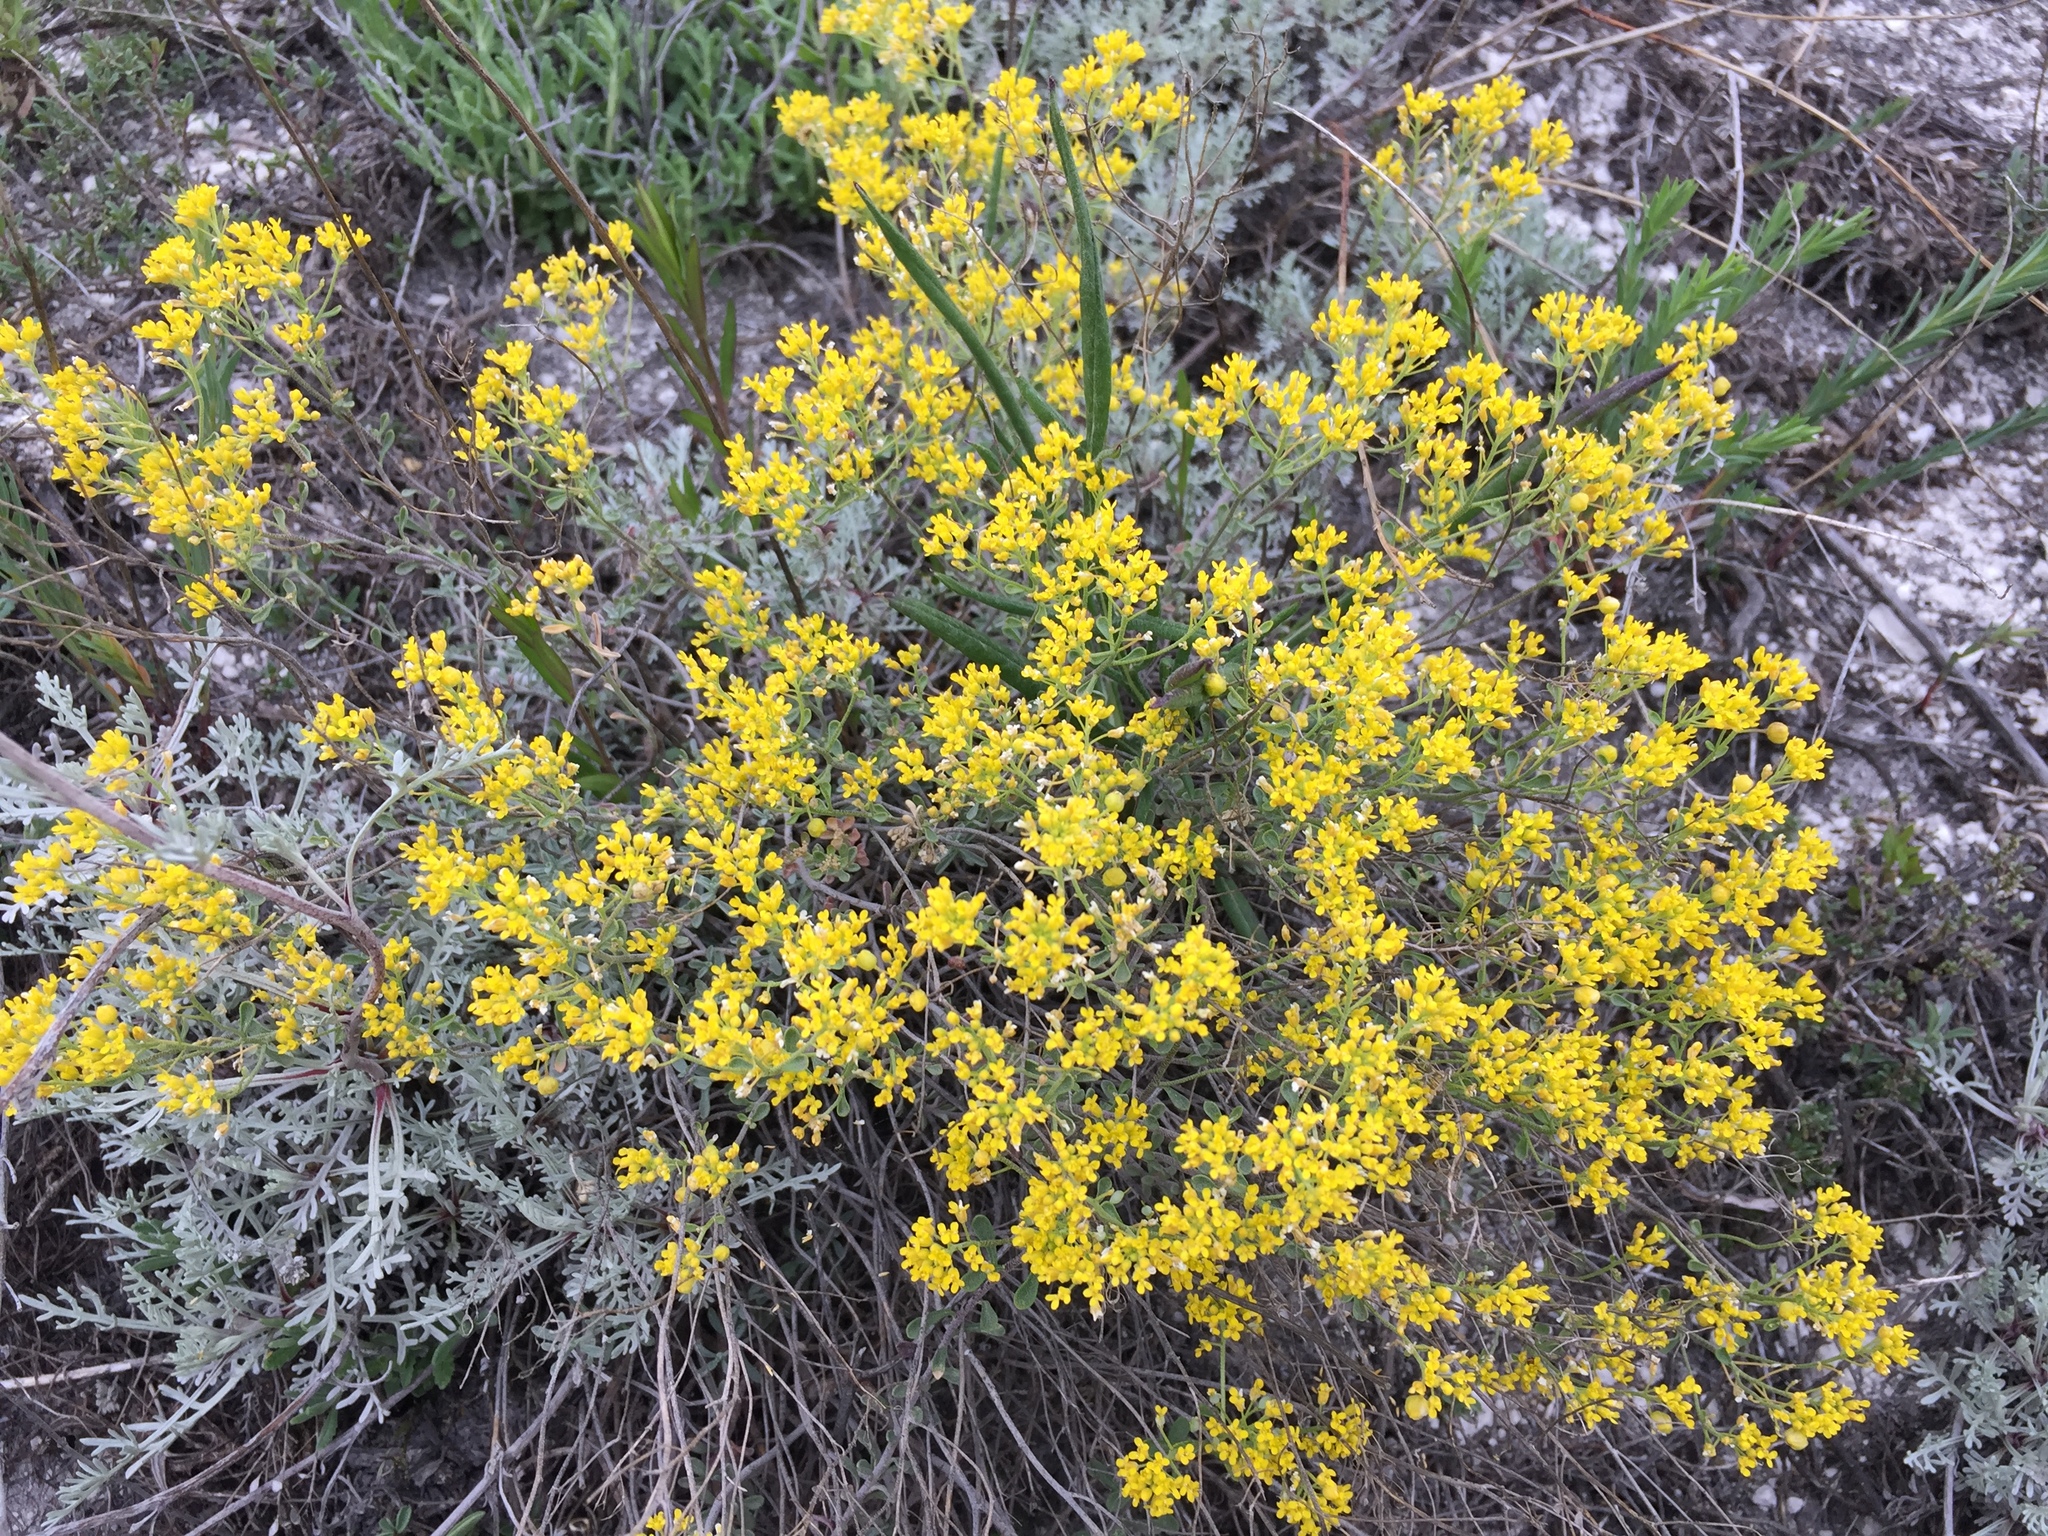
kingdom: Plantae
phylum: Tracheophyta
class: Magnoliopsida
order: Brassicales
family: Brassicaceae
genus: Odontarrhena
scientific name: Odontarrhena tortuosa
